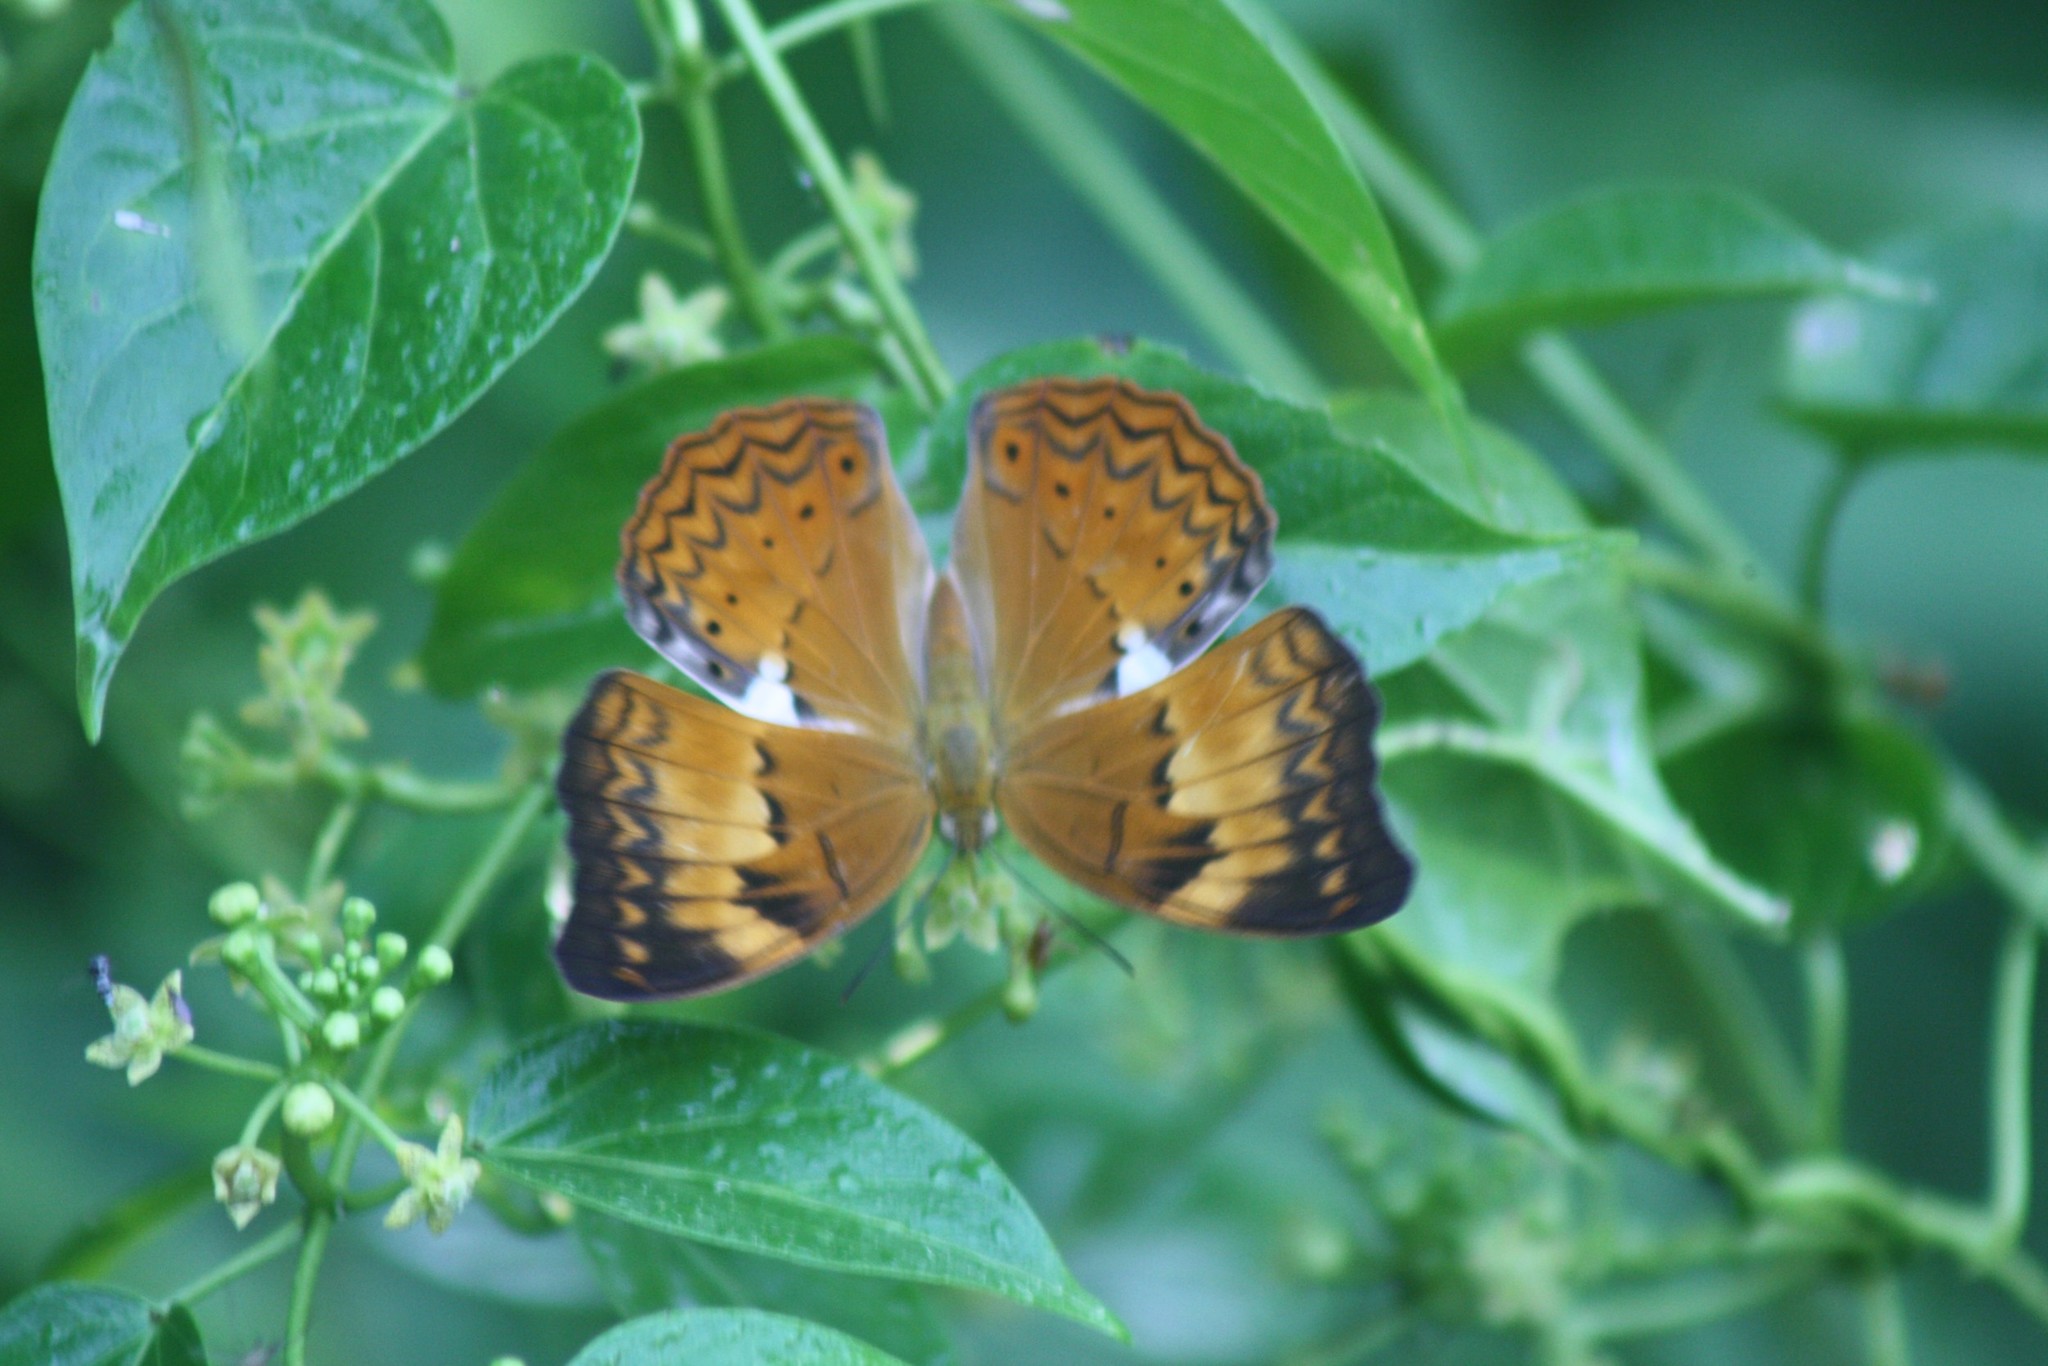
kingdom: Animalia
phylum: Arthropoda
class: Insecta
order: Lepidoptera
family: Nymphalidae
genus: Cirrochroa
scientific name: Cirrochroa thais
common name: Tamil yeoman
